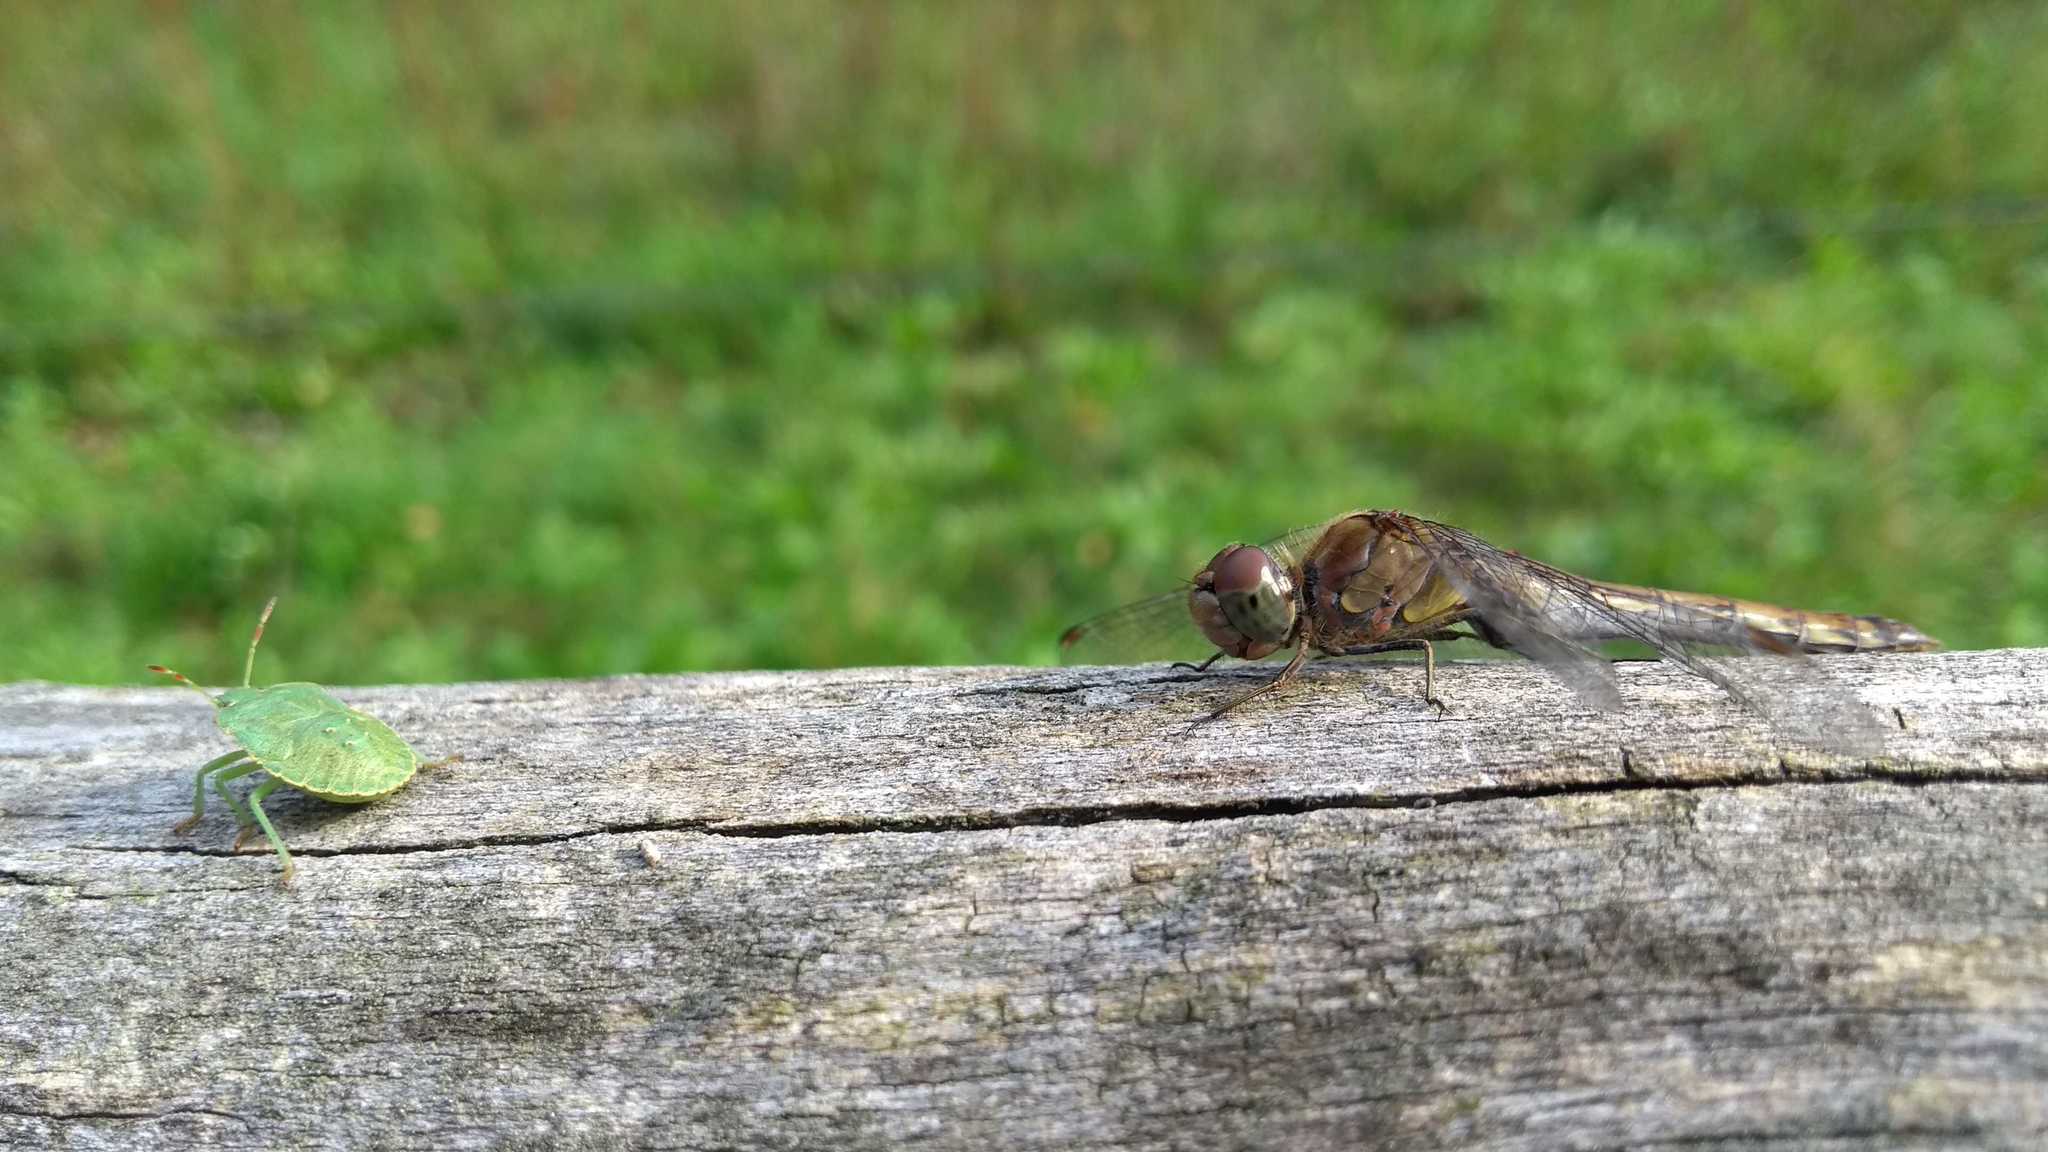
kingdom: Animalia
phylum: Arthropoda
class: Insecta
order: Odonata
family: Libellulidae
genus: Sympetrum
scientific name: Sympetrum striolatum
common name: Common darter
